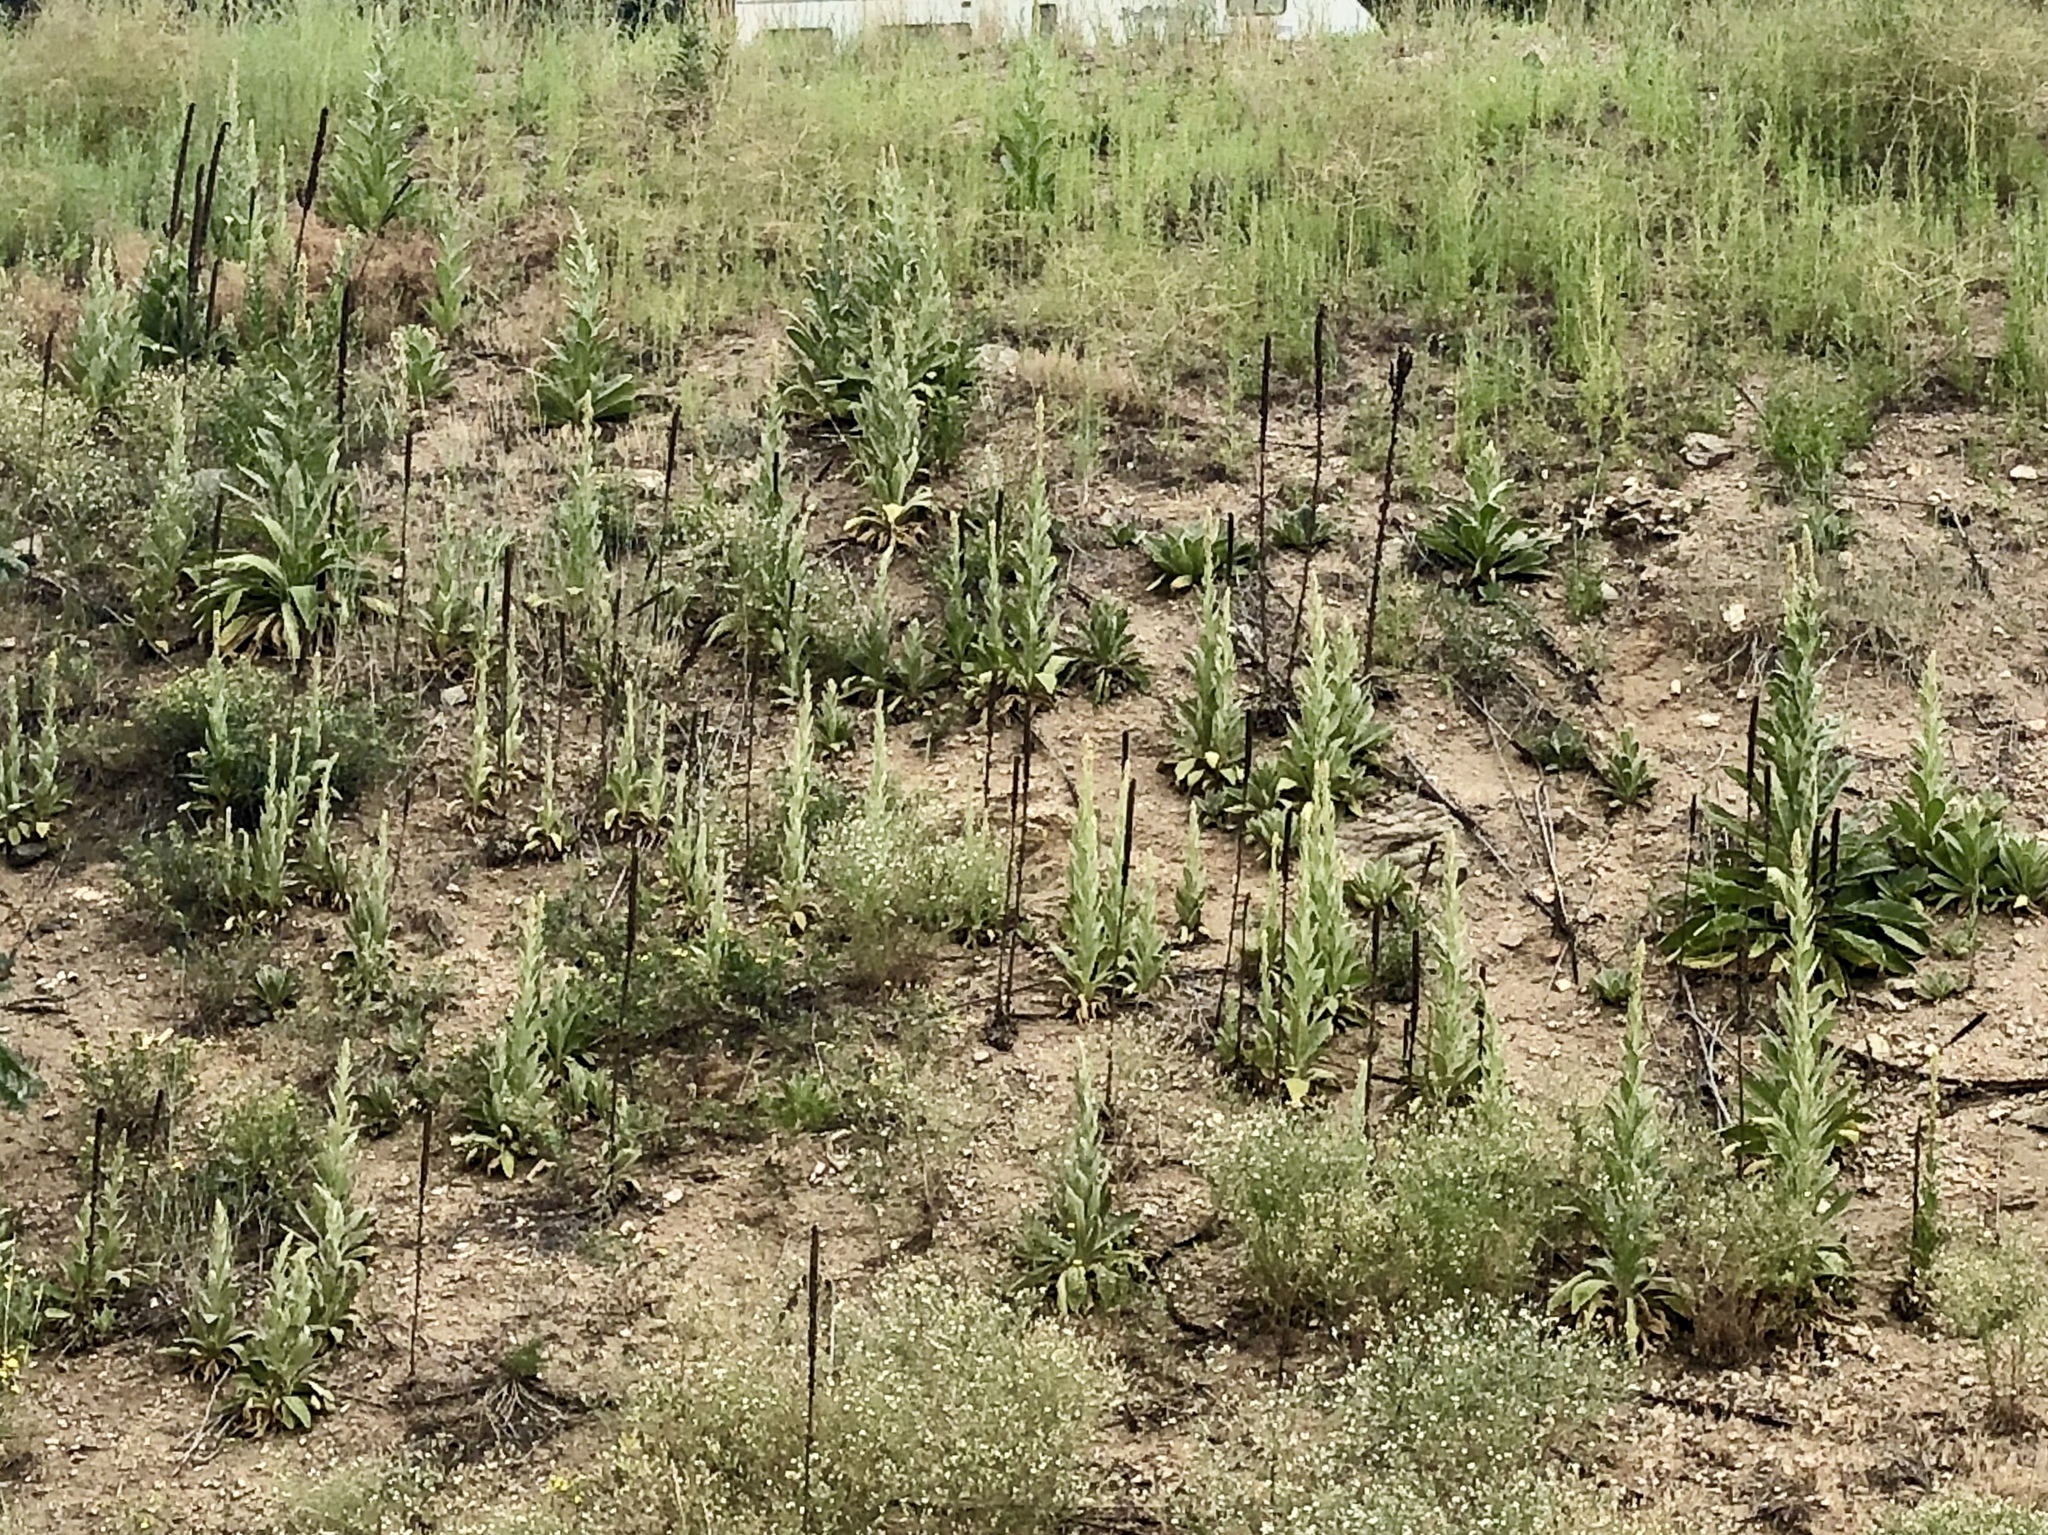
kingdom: Plantae
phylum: Tracheophyta
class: Magnoliopsida
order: Lamiales
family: Scrophulariaceae
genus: Verbascum
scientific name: Verbascum thapsus
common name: Common mullein
